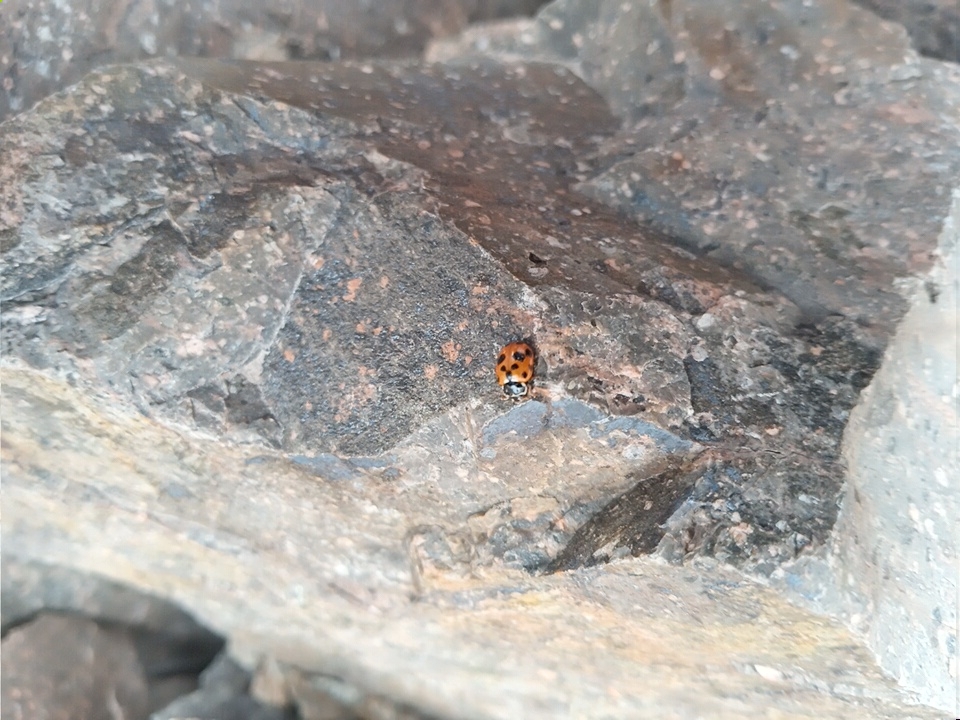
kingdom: Animalia
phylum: Arthropoda
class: Insecta
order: Coleoptera
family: Coccinellidae
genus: Hippodamia
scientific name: Hippodamia variegata
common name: Ladybird beetle
